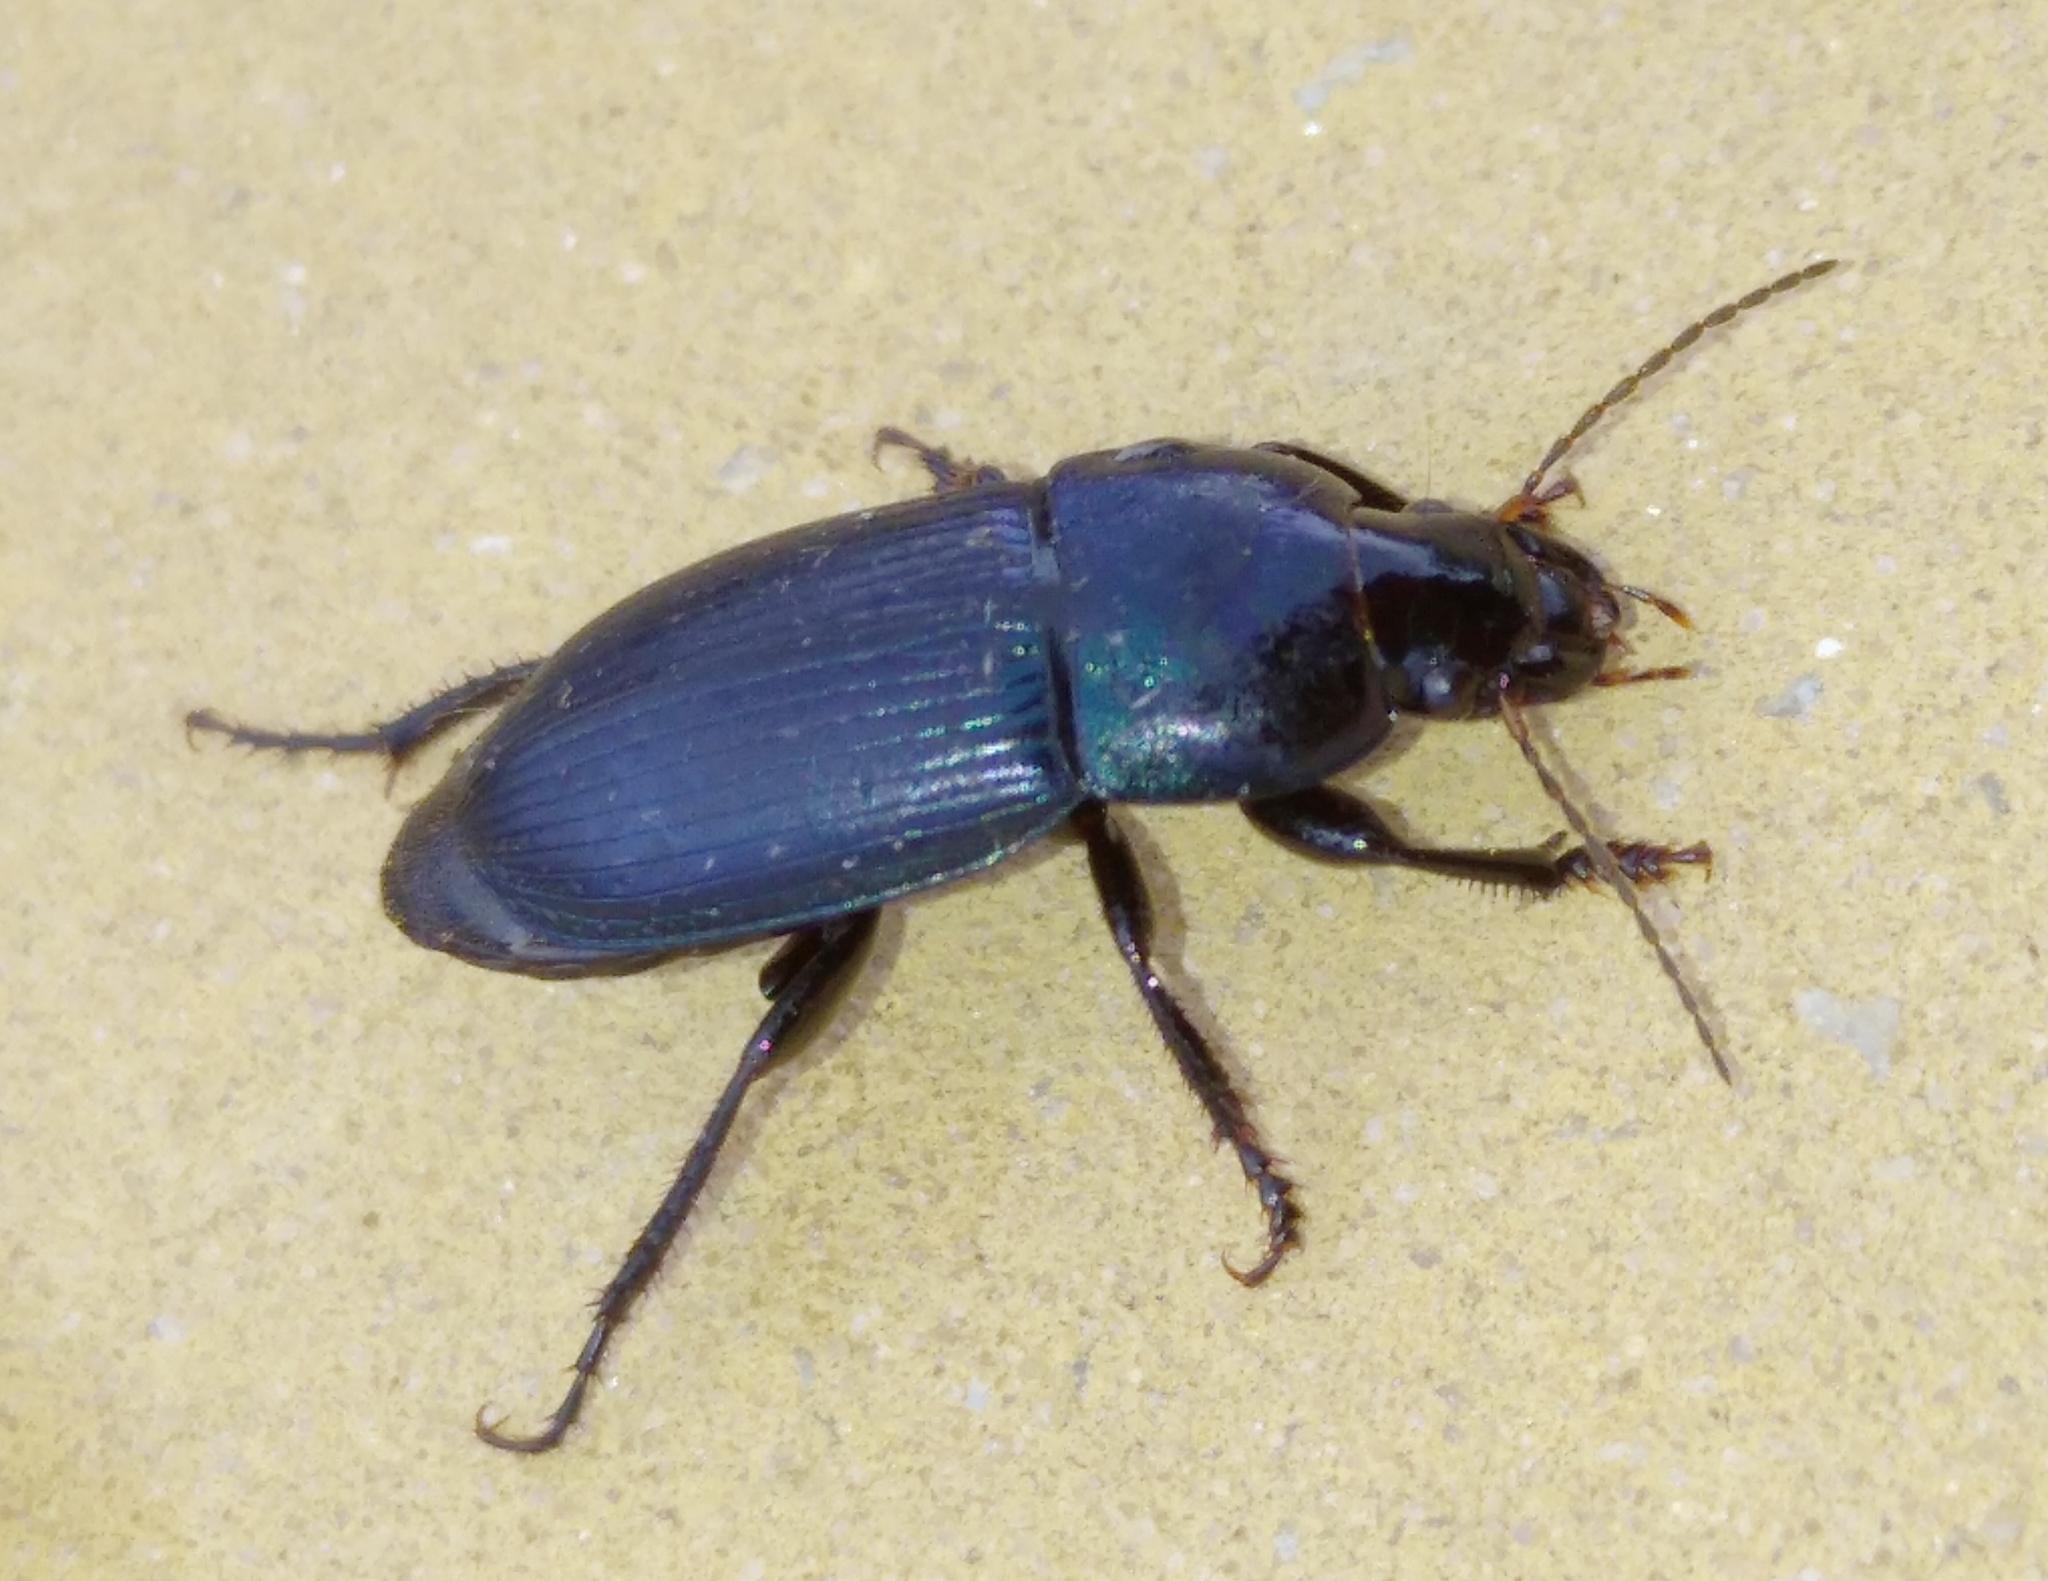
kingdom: Animalia
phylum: Arthropoda
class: Insecta
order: Coleoptera
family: Carabidae
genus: Harpalus
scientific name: Harpalus dimidiatus
